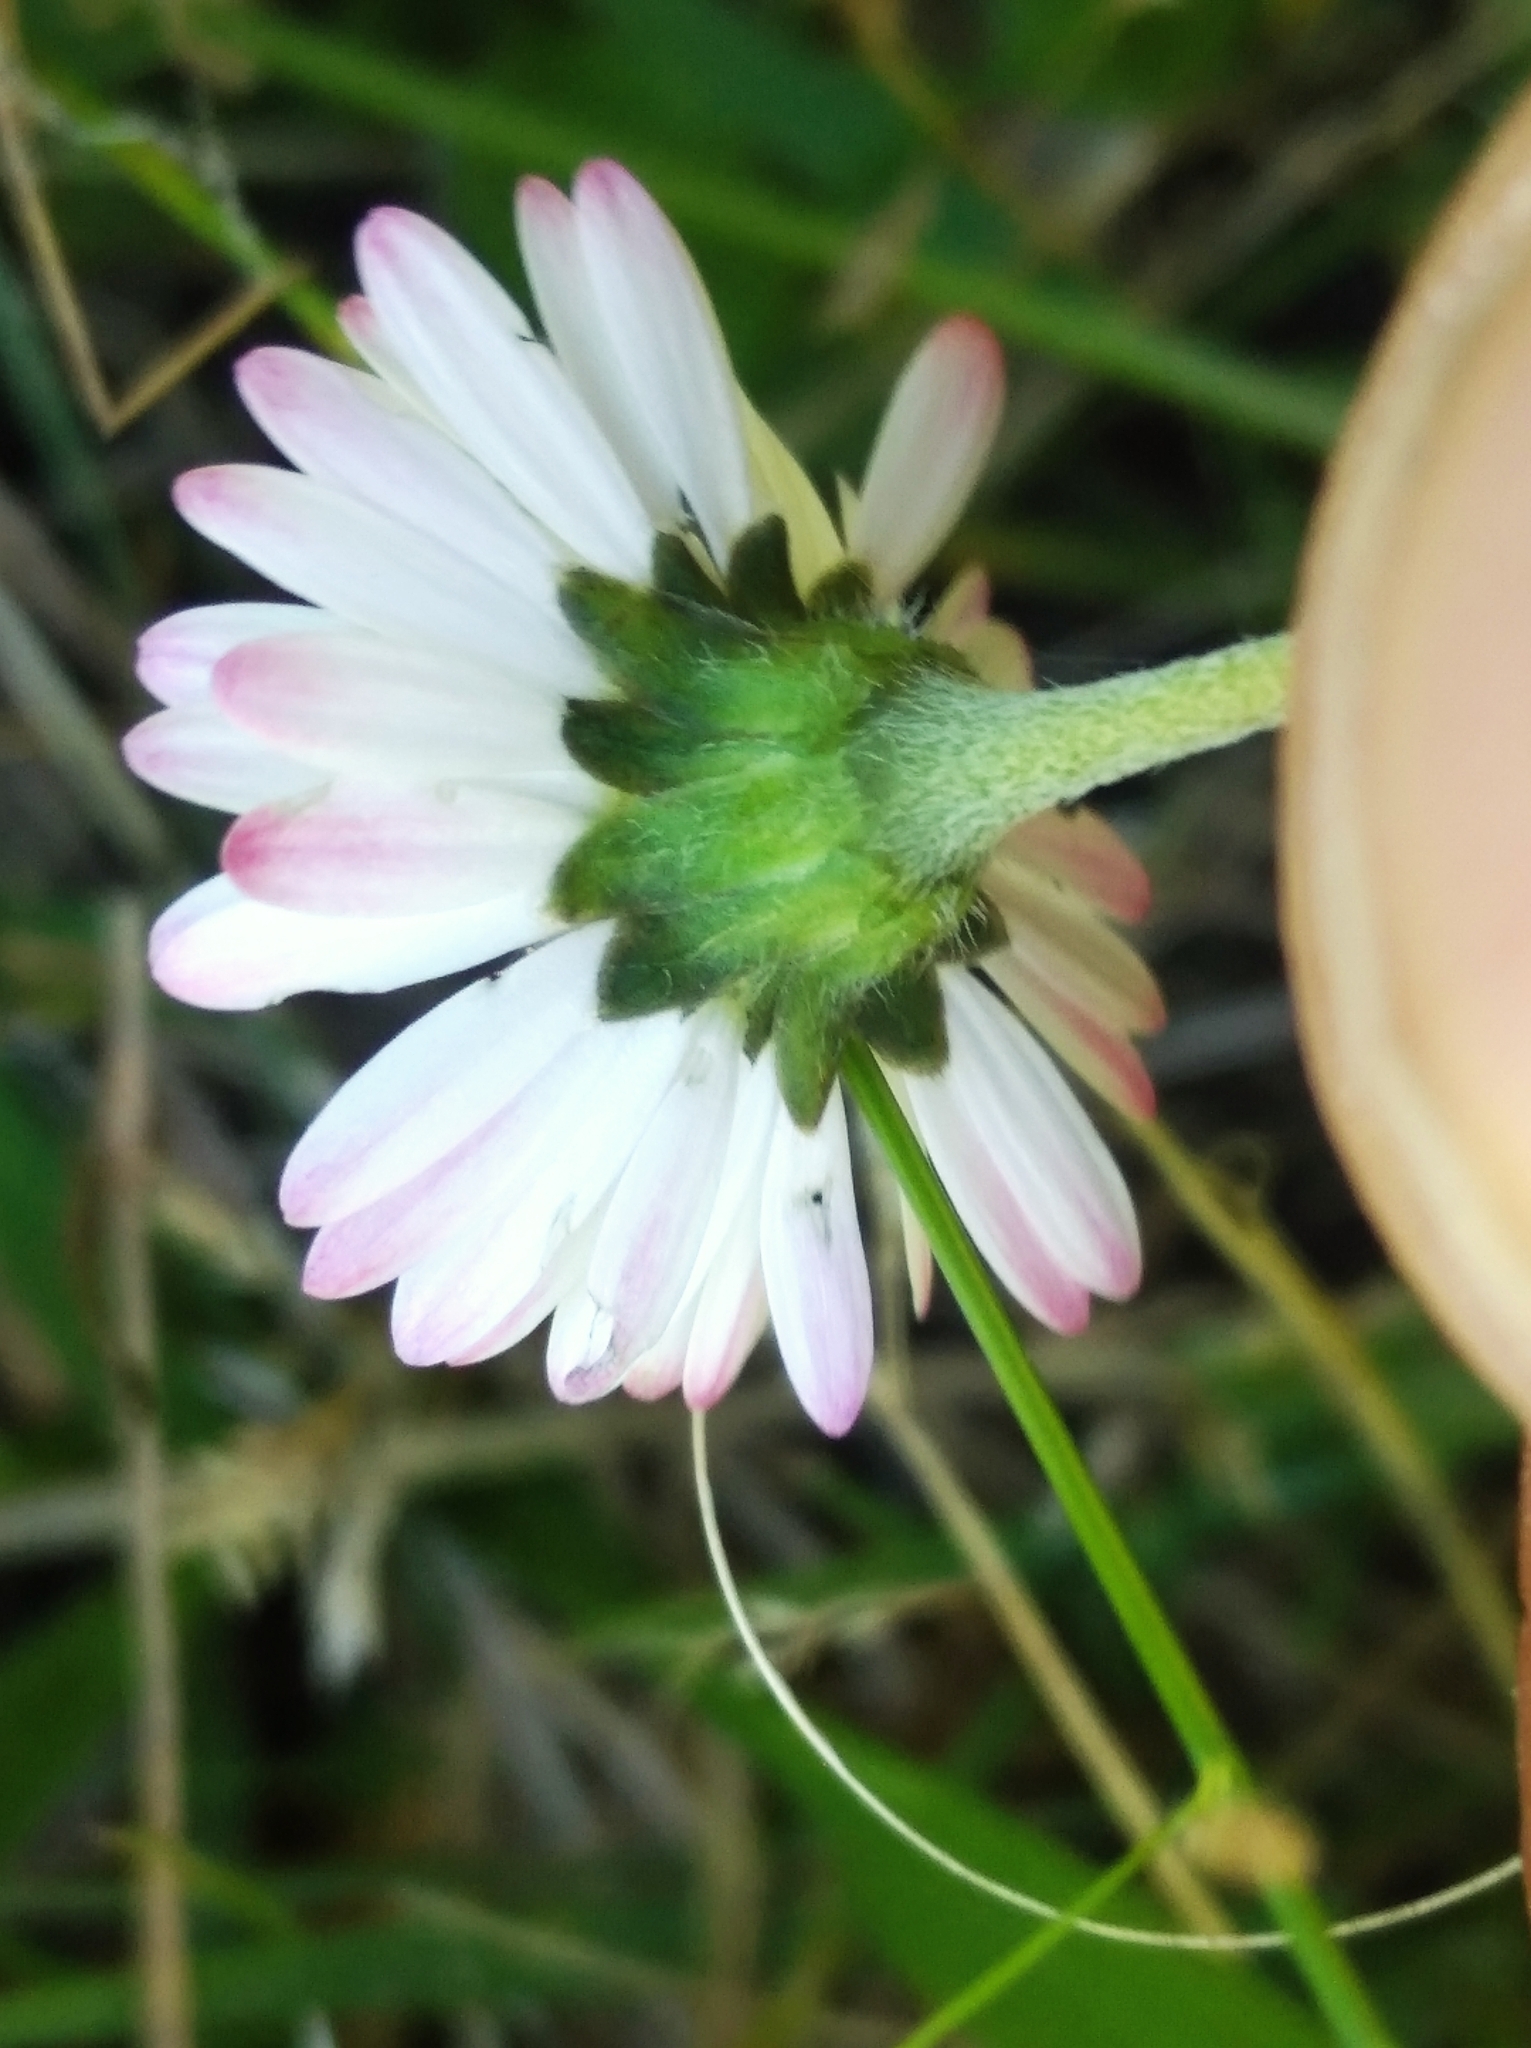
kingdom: Plantae
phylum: Tracheophyta
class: Magnoliopsida
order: Asterales
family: Asteraceae
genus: Bellis
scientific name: Bellis perennis
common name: Lawndaisy
